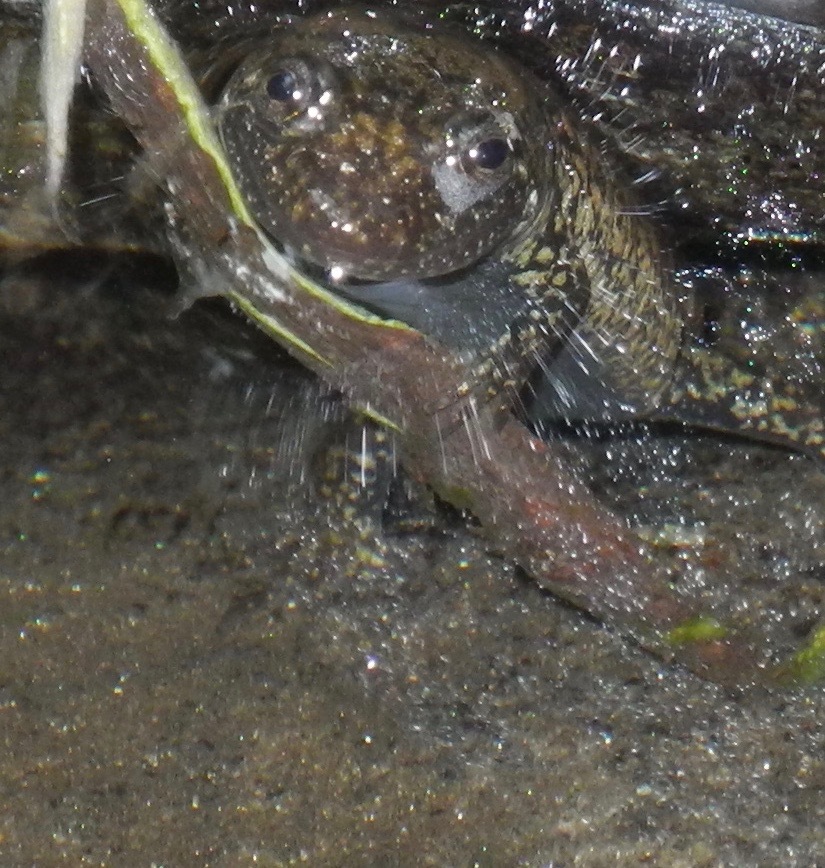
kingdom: Animalia
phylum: Chordata
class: Amphibia
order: Caudata
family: Plethodontidae
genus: Desmognathus
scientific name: Desmognathus
